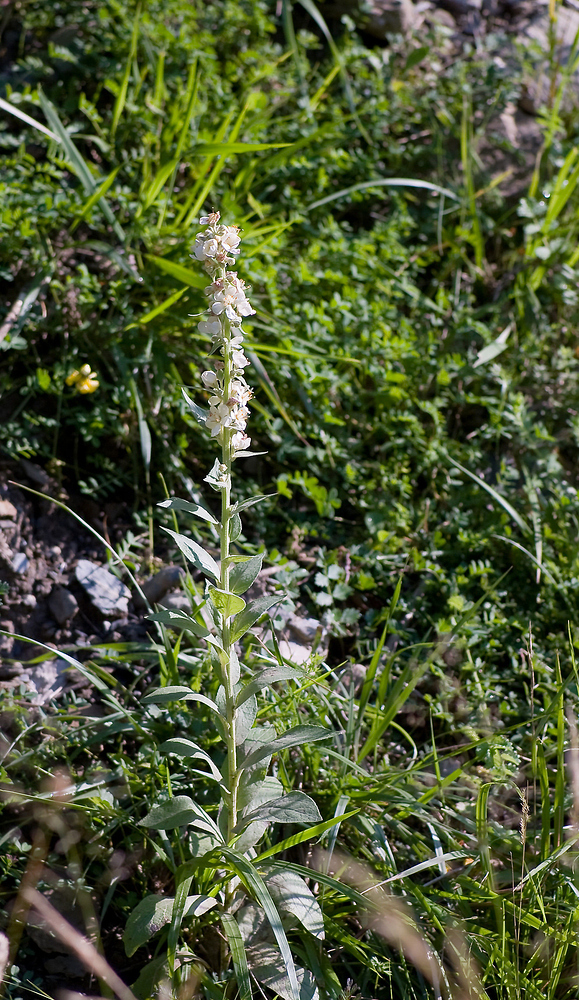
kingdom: Plantae
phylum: Tracheophyta
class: Magnoliopsida
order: Lamiales
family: Scrophulariaceae
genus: Verbascum
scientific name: Verbascum lychnitis
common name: White mullein
